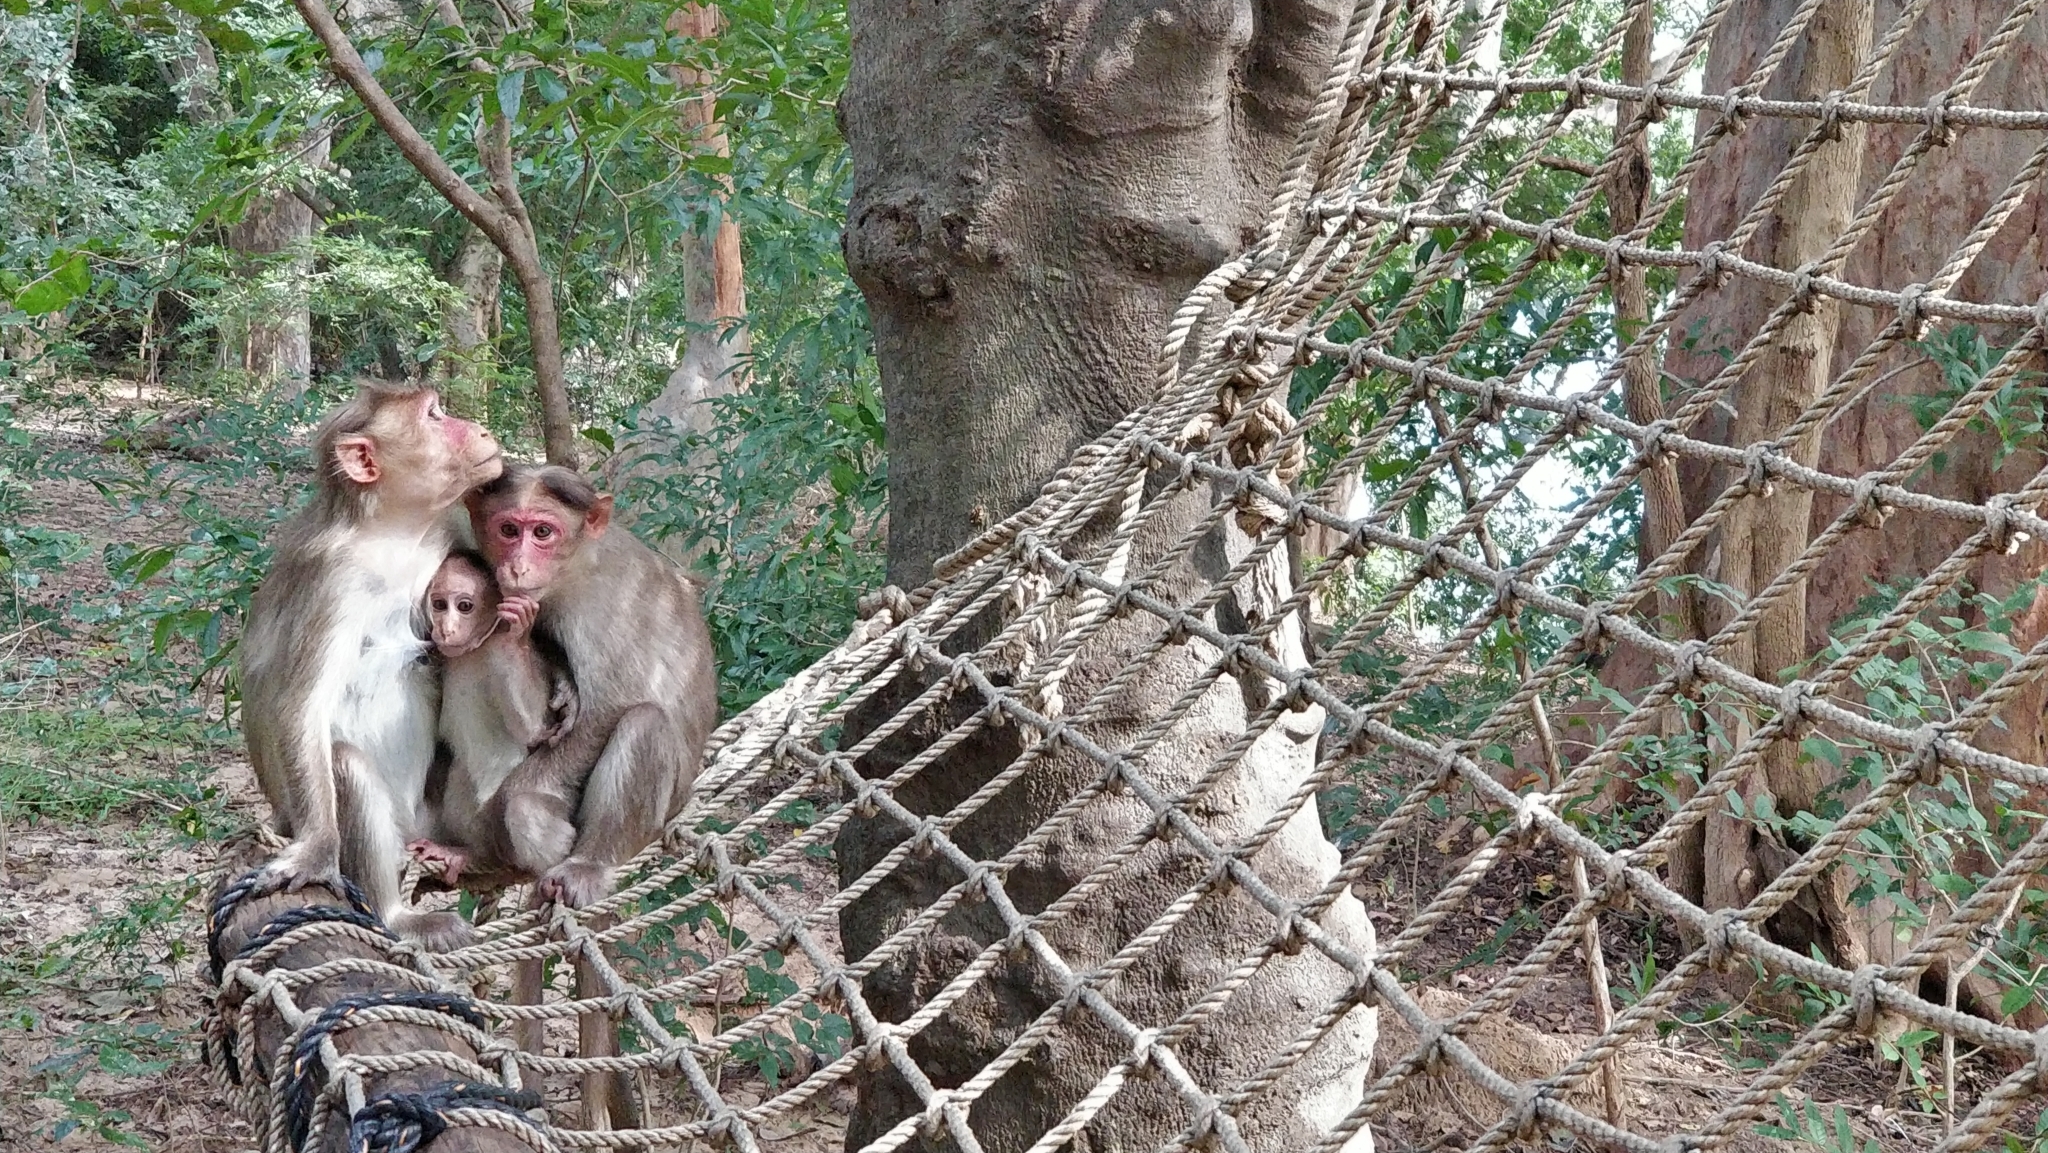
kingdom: Animalia
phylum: Chordata
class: Mammalia
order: Primates
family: Cercopithecidae
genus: Macaca
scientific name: Macaca radiata
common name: Bonnet macaque
